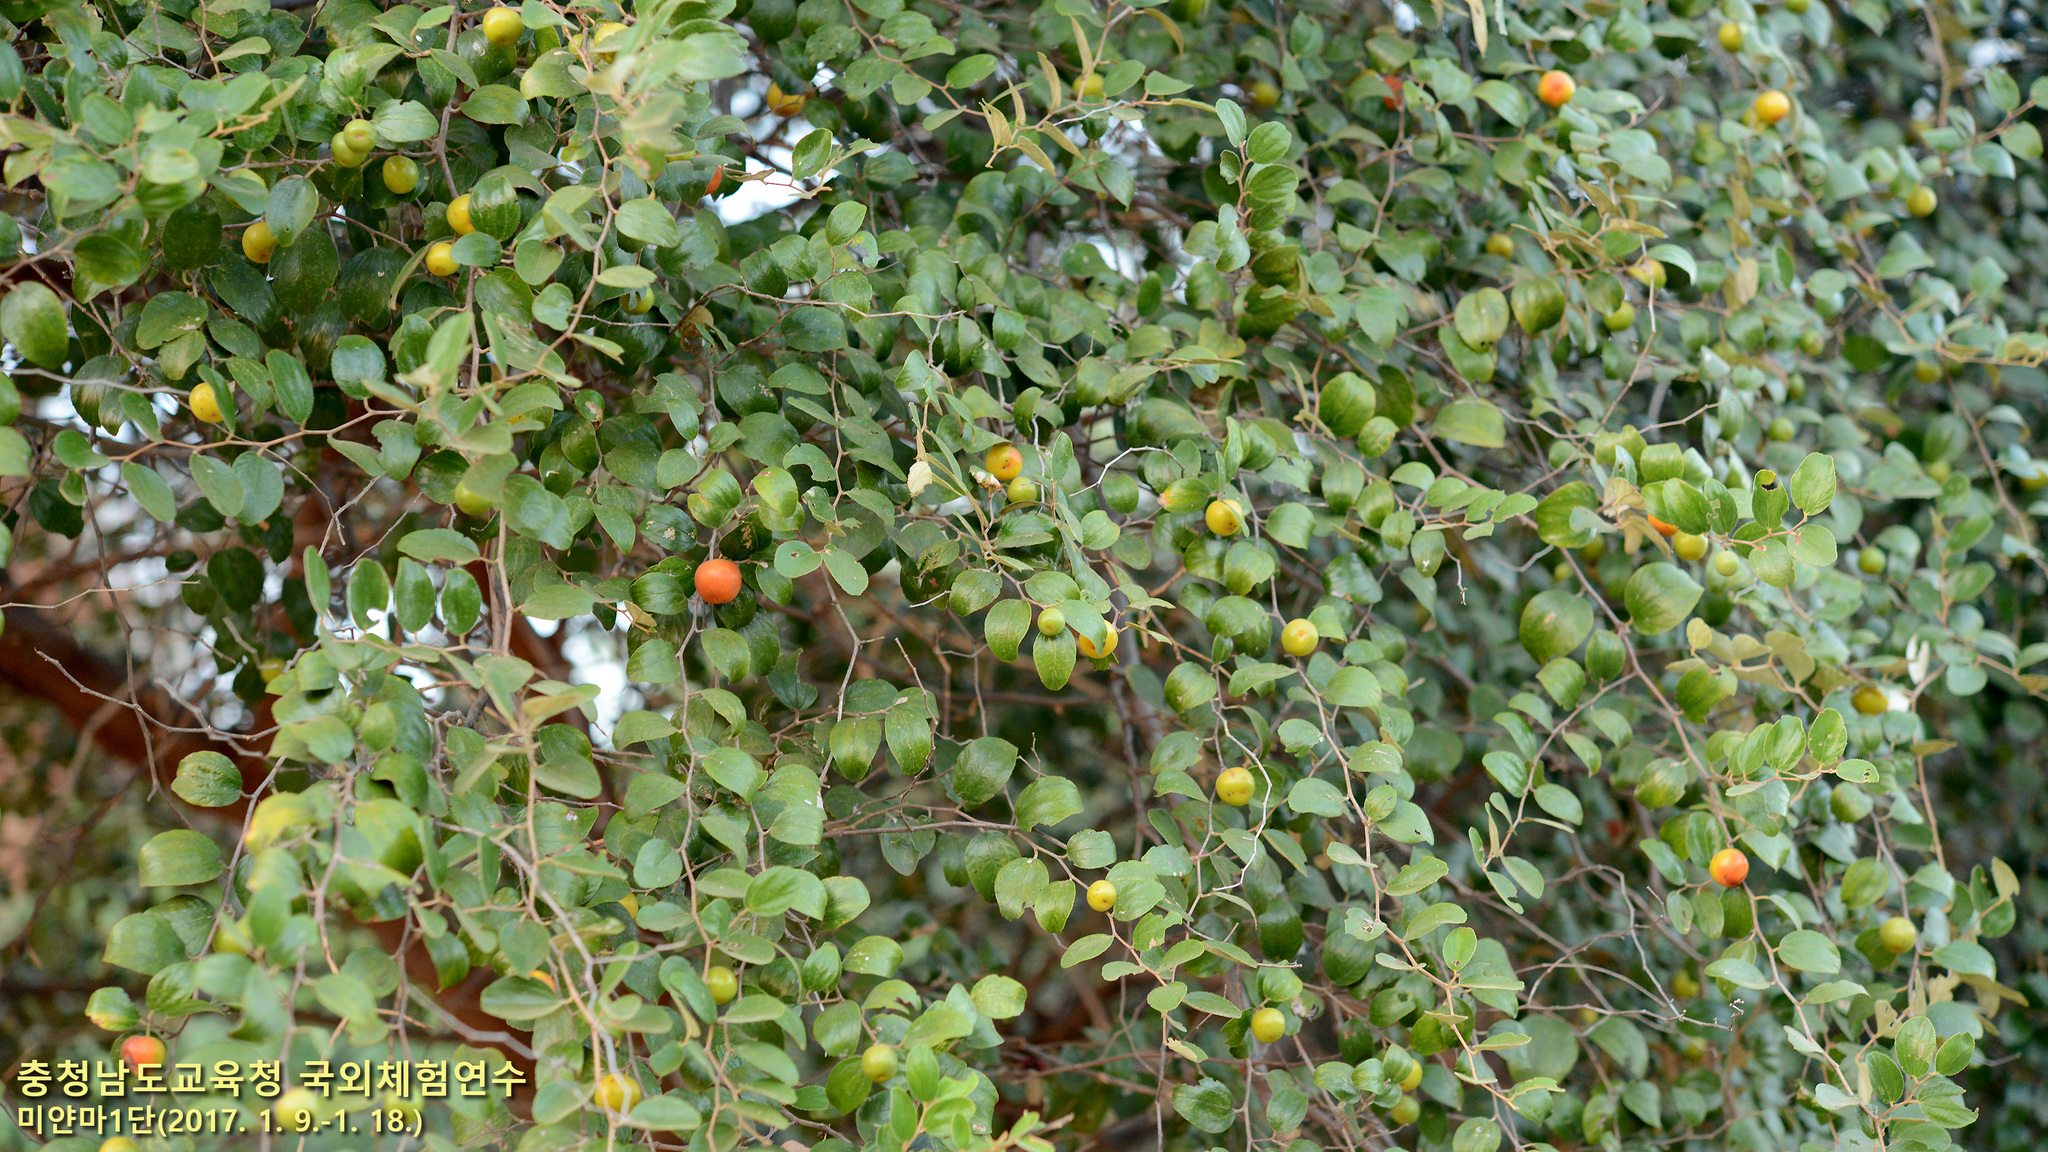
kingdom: Plantae
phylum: Tracheophyta
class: Magnoliopsida
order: Rosales
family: Rhamnaceae
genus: Ziziphus
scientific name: Ziziphus mauritiana
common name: Indian jujube
